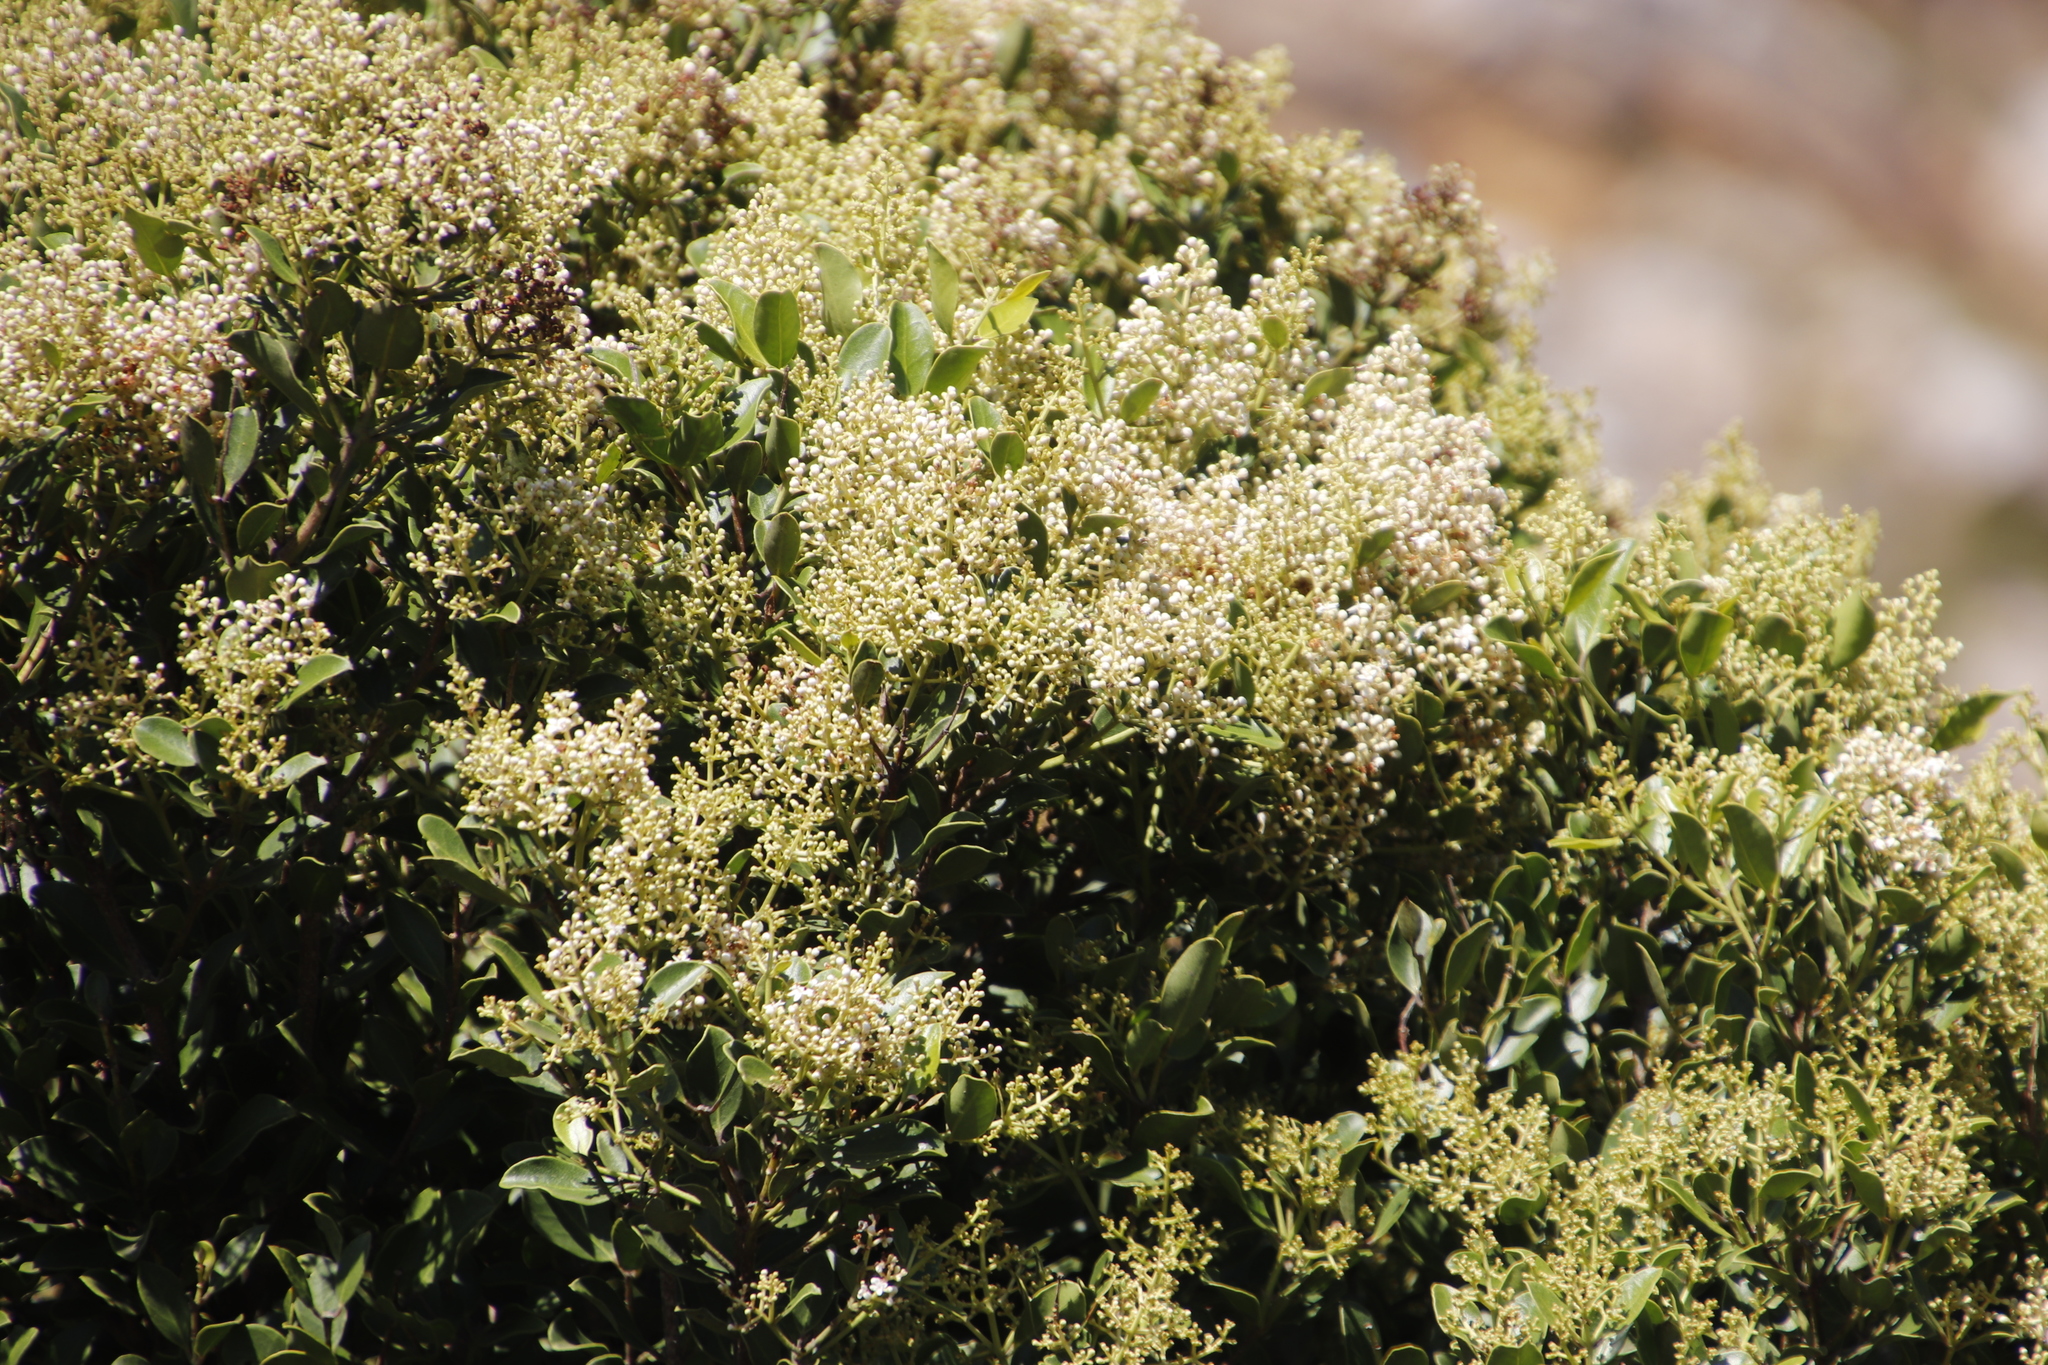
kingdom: Plantae
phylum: Tracheophyta
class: Magnoliopsida
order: Lamiales
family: Oleaceae
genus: Olea
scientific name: Olea capensis
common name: Black ironwood
